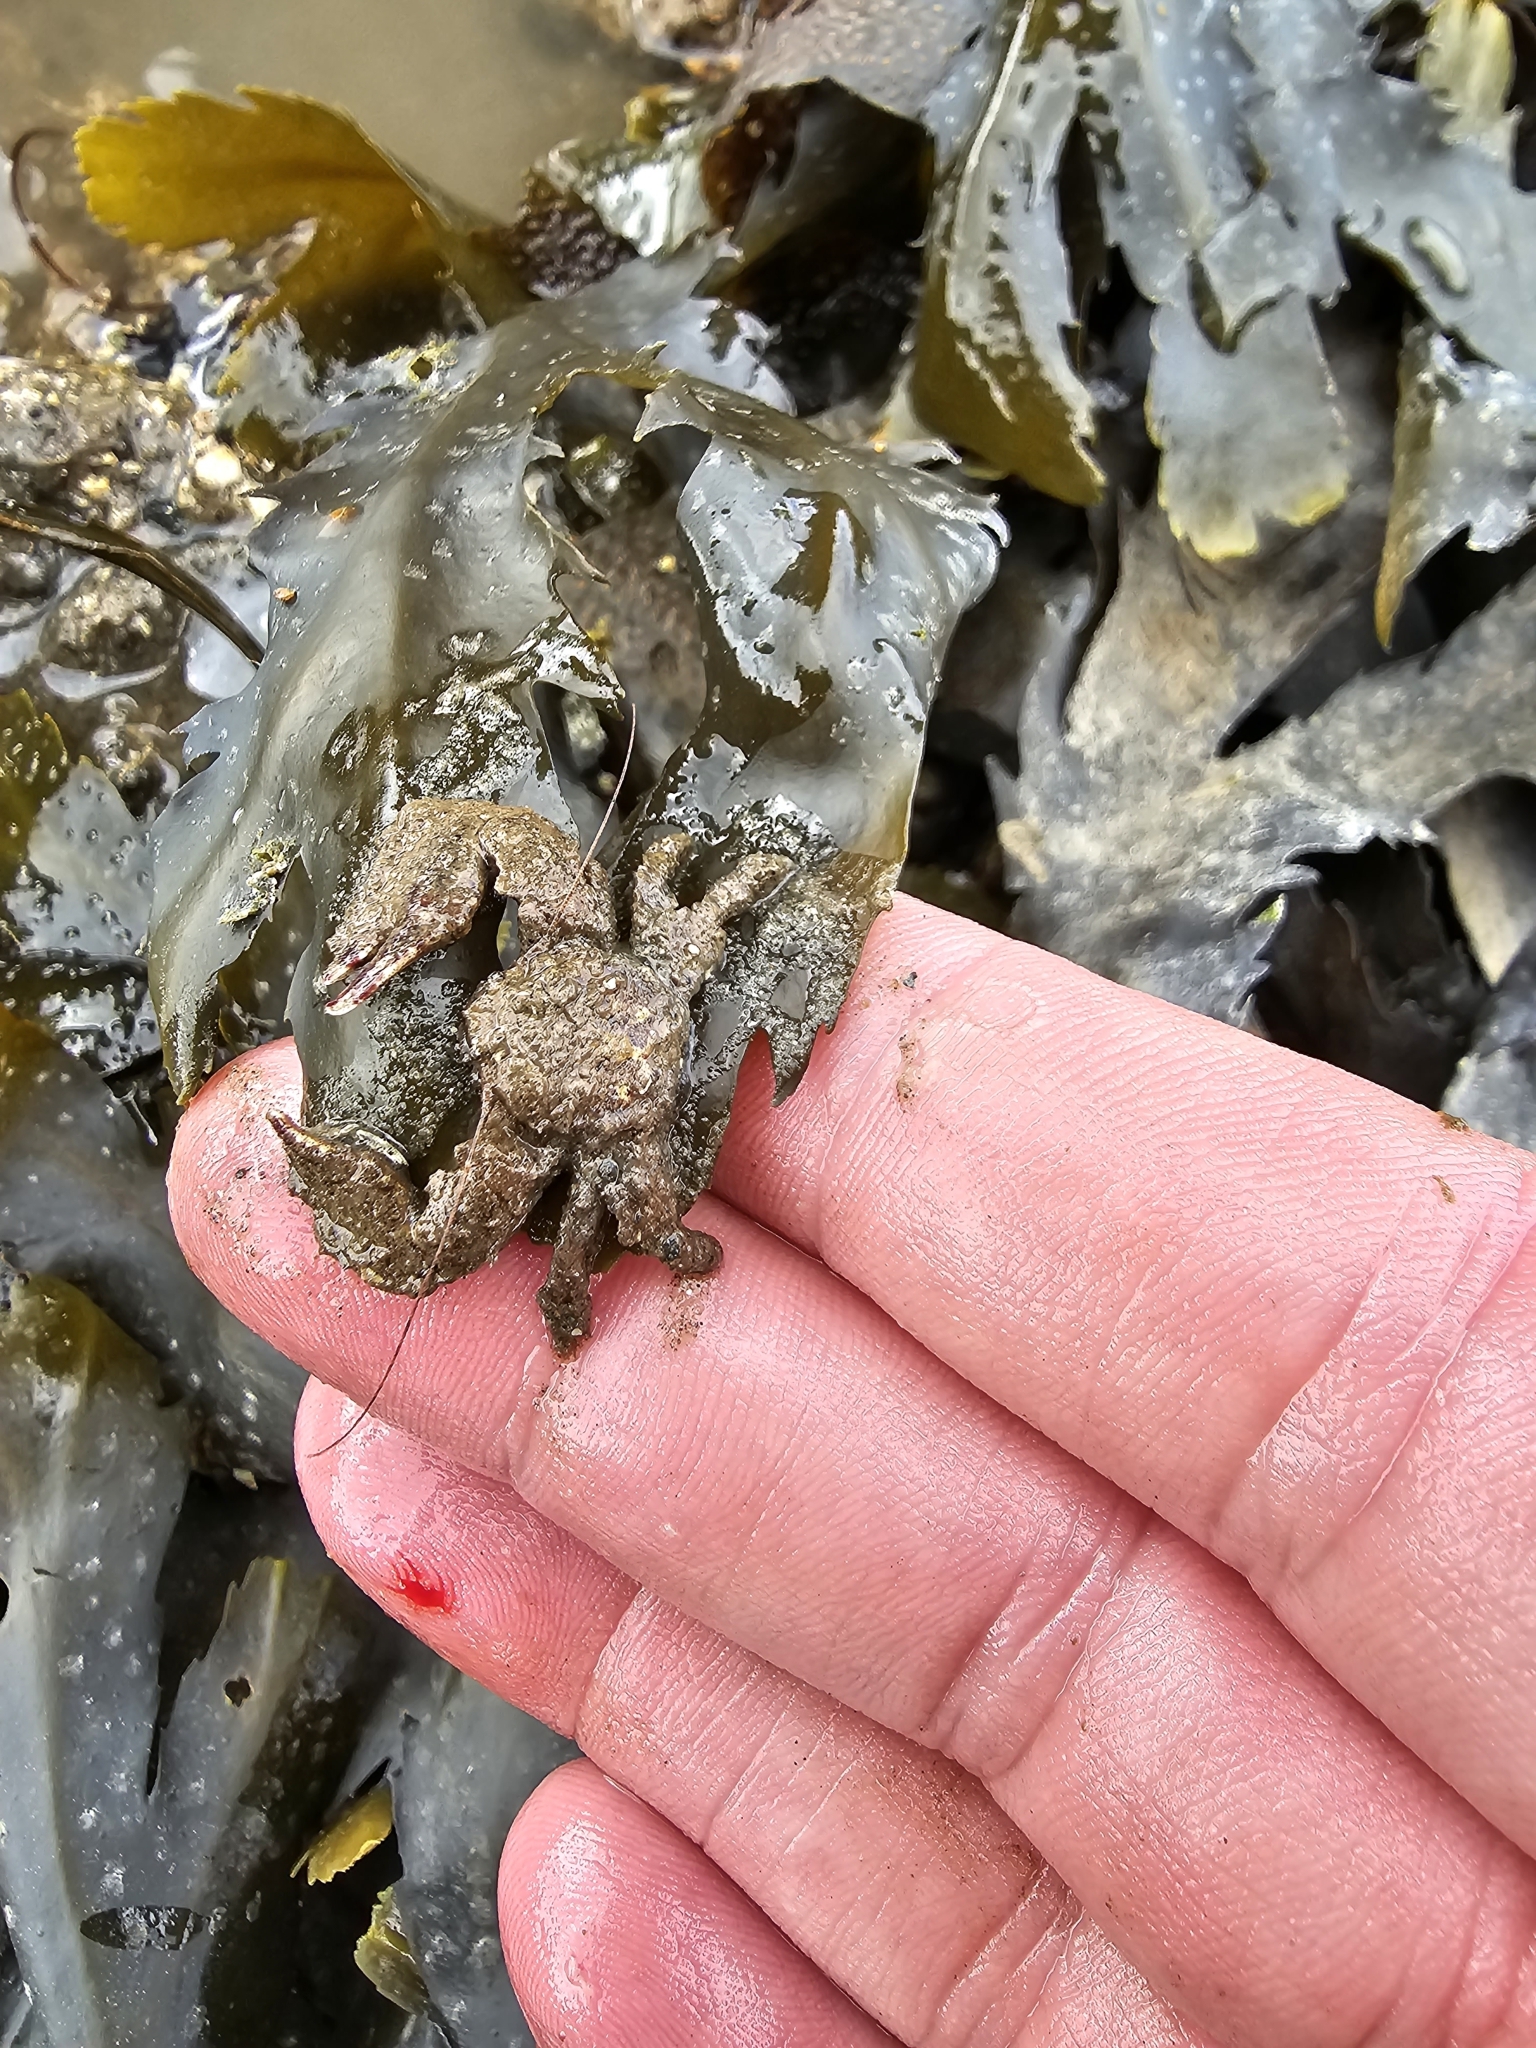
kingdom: Animalia
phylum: Arthropoda
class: Malacostraca
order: Decapoda
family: Porcellanidae
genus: Porcellana
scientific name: Porcellana platycheles
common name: Porcelain crab
